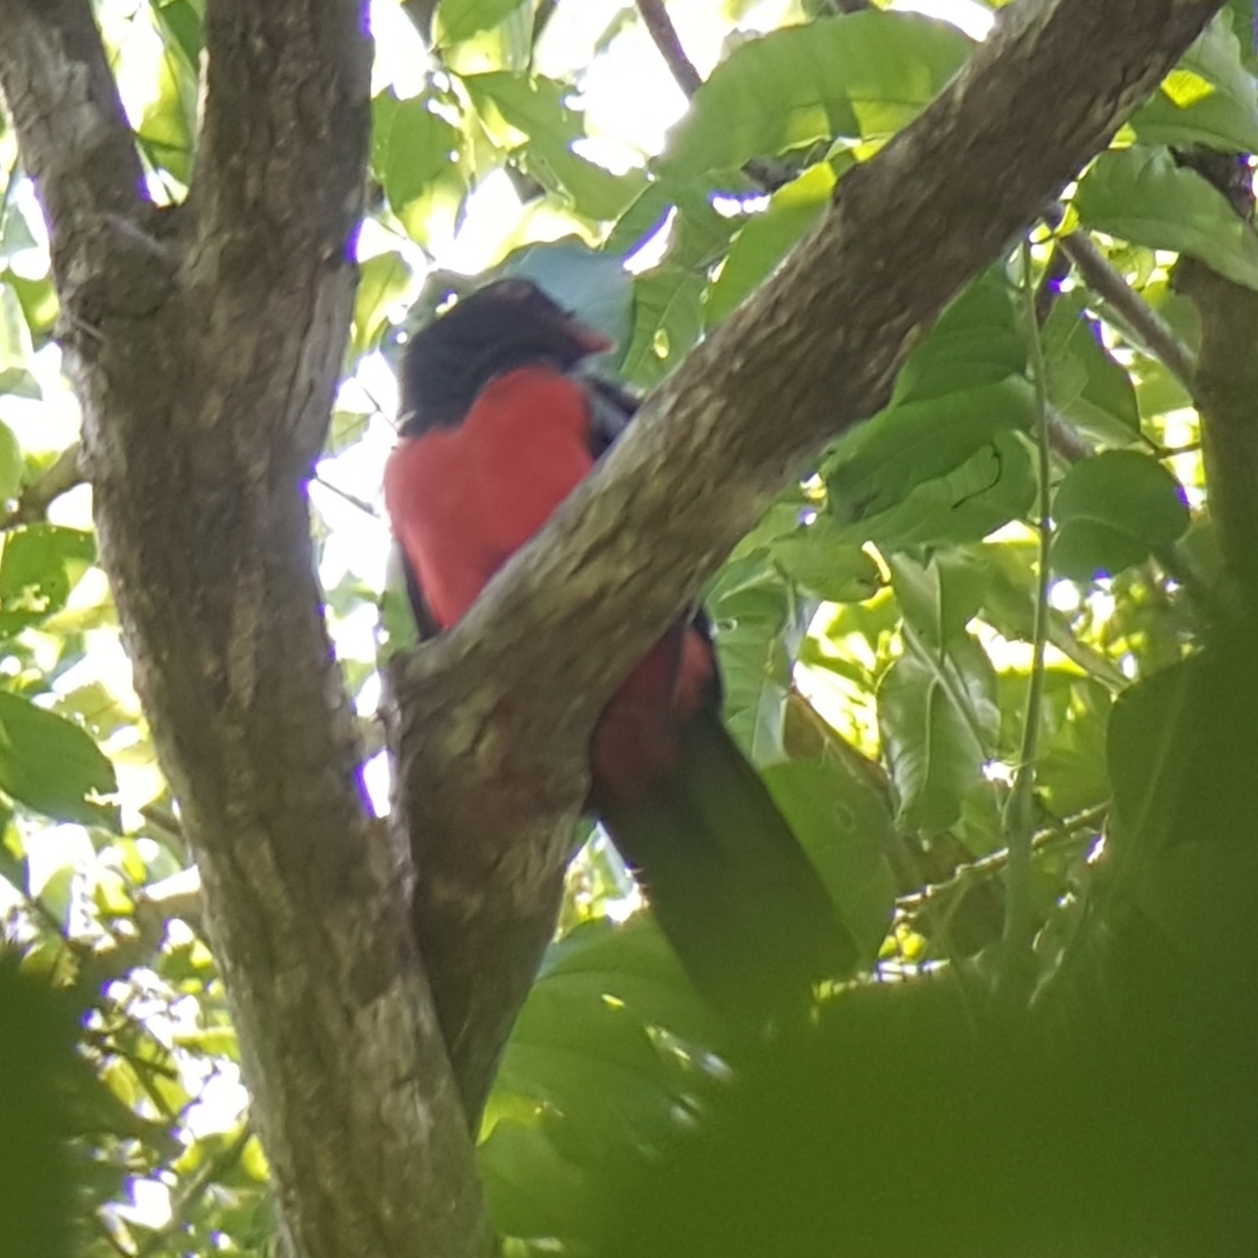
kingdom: Animalia
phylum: Chordata
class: Aves
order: Trogoniformes
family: Trogonidae
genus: Trogon
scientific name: Trogon massena
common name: Slaty-tailed trogon
